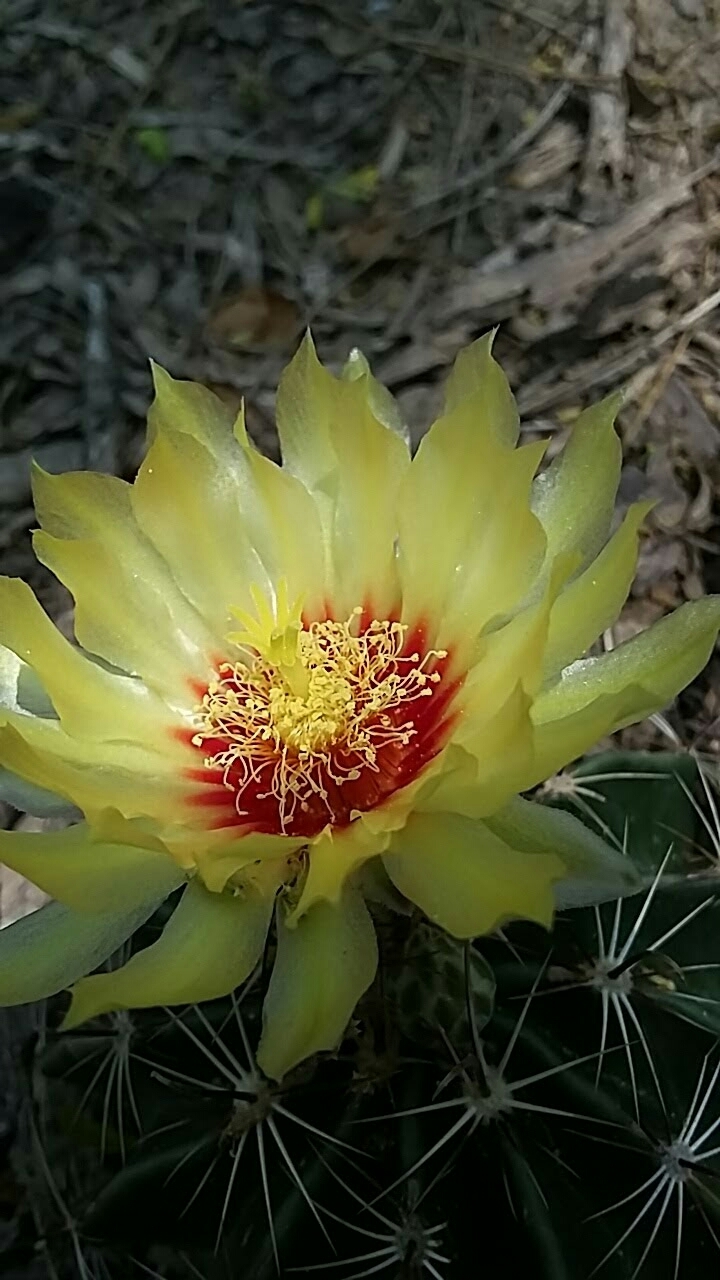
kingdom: Plantae
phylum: Tracheophyta
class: Magnoliopsida
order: Caryophyllales
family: Cactaceae
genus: Thelocactus
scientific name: Thelocactus setispinus
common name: Miniature barrel cactus
